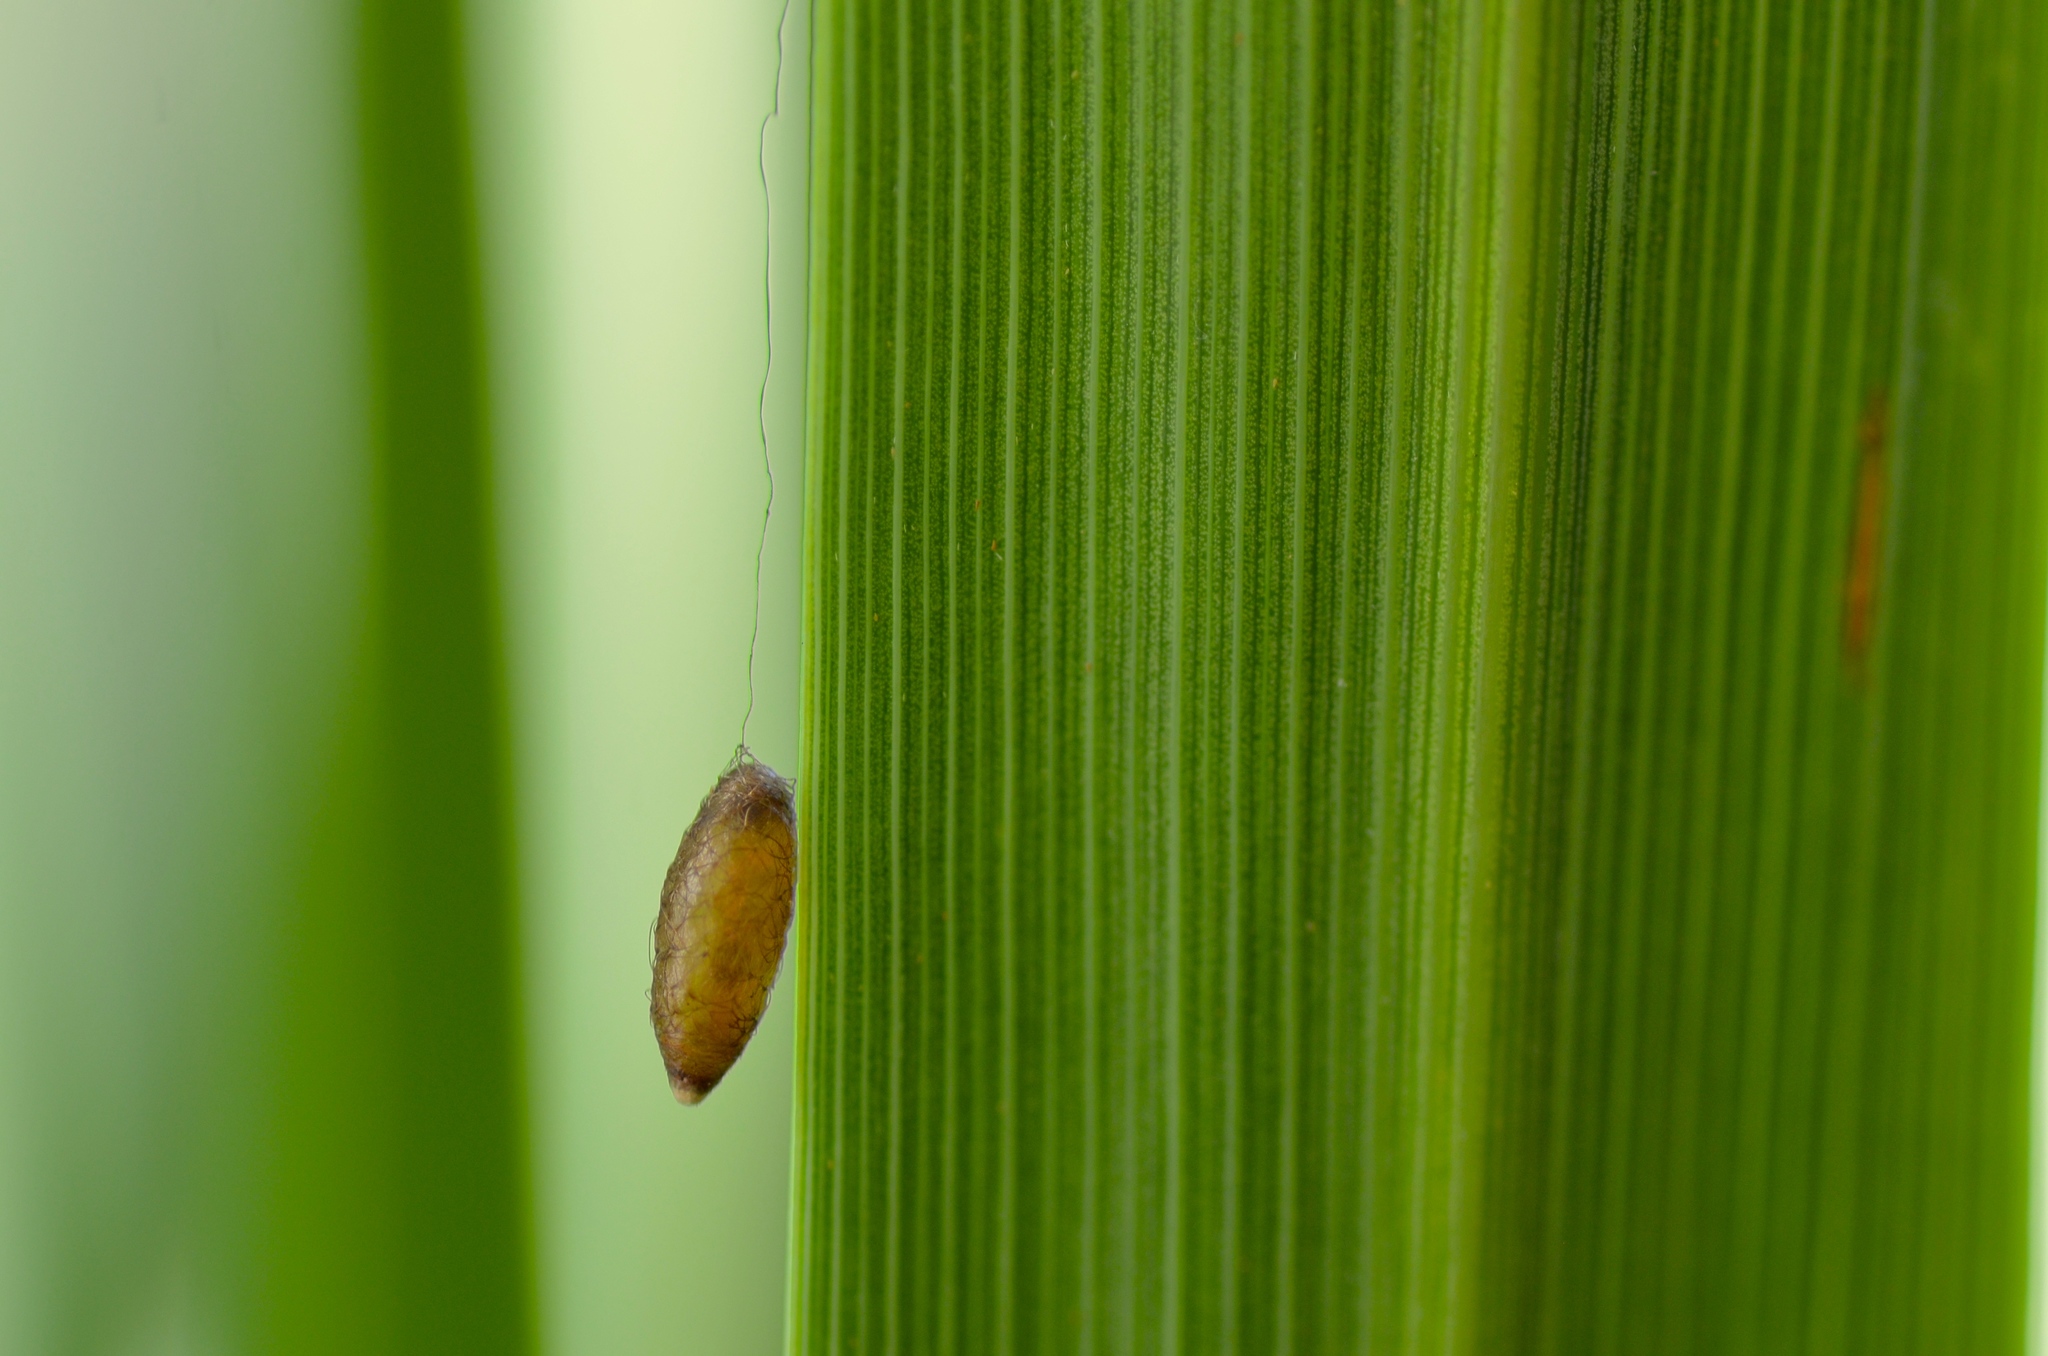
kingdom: Animalia
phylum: Arthropoda
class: Insecta
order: Hymenoptera
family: Braconidae
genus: Meteorus
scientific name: Meteorus pulchricornis
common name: Braconid wasp
